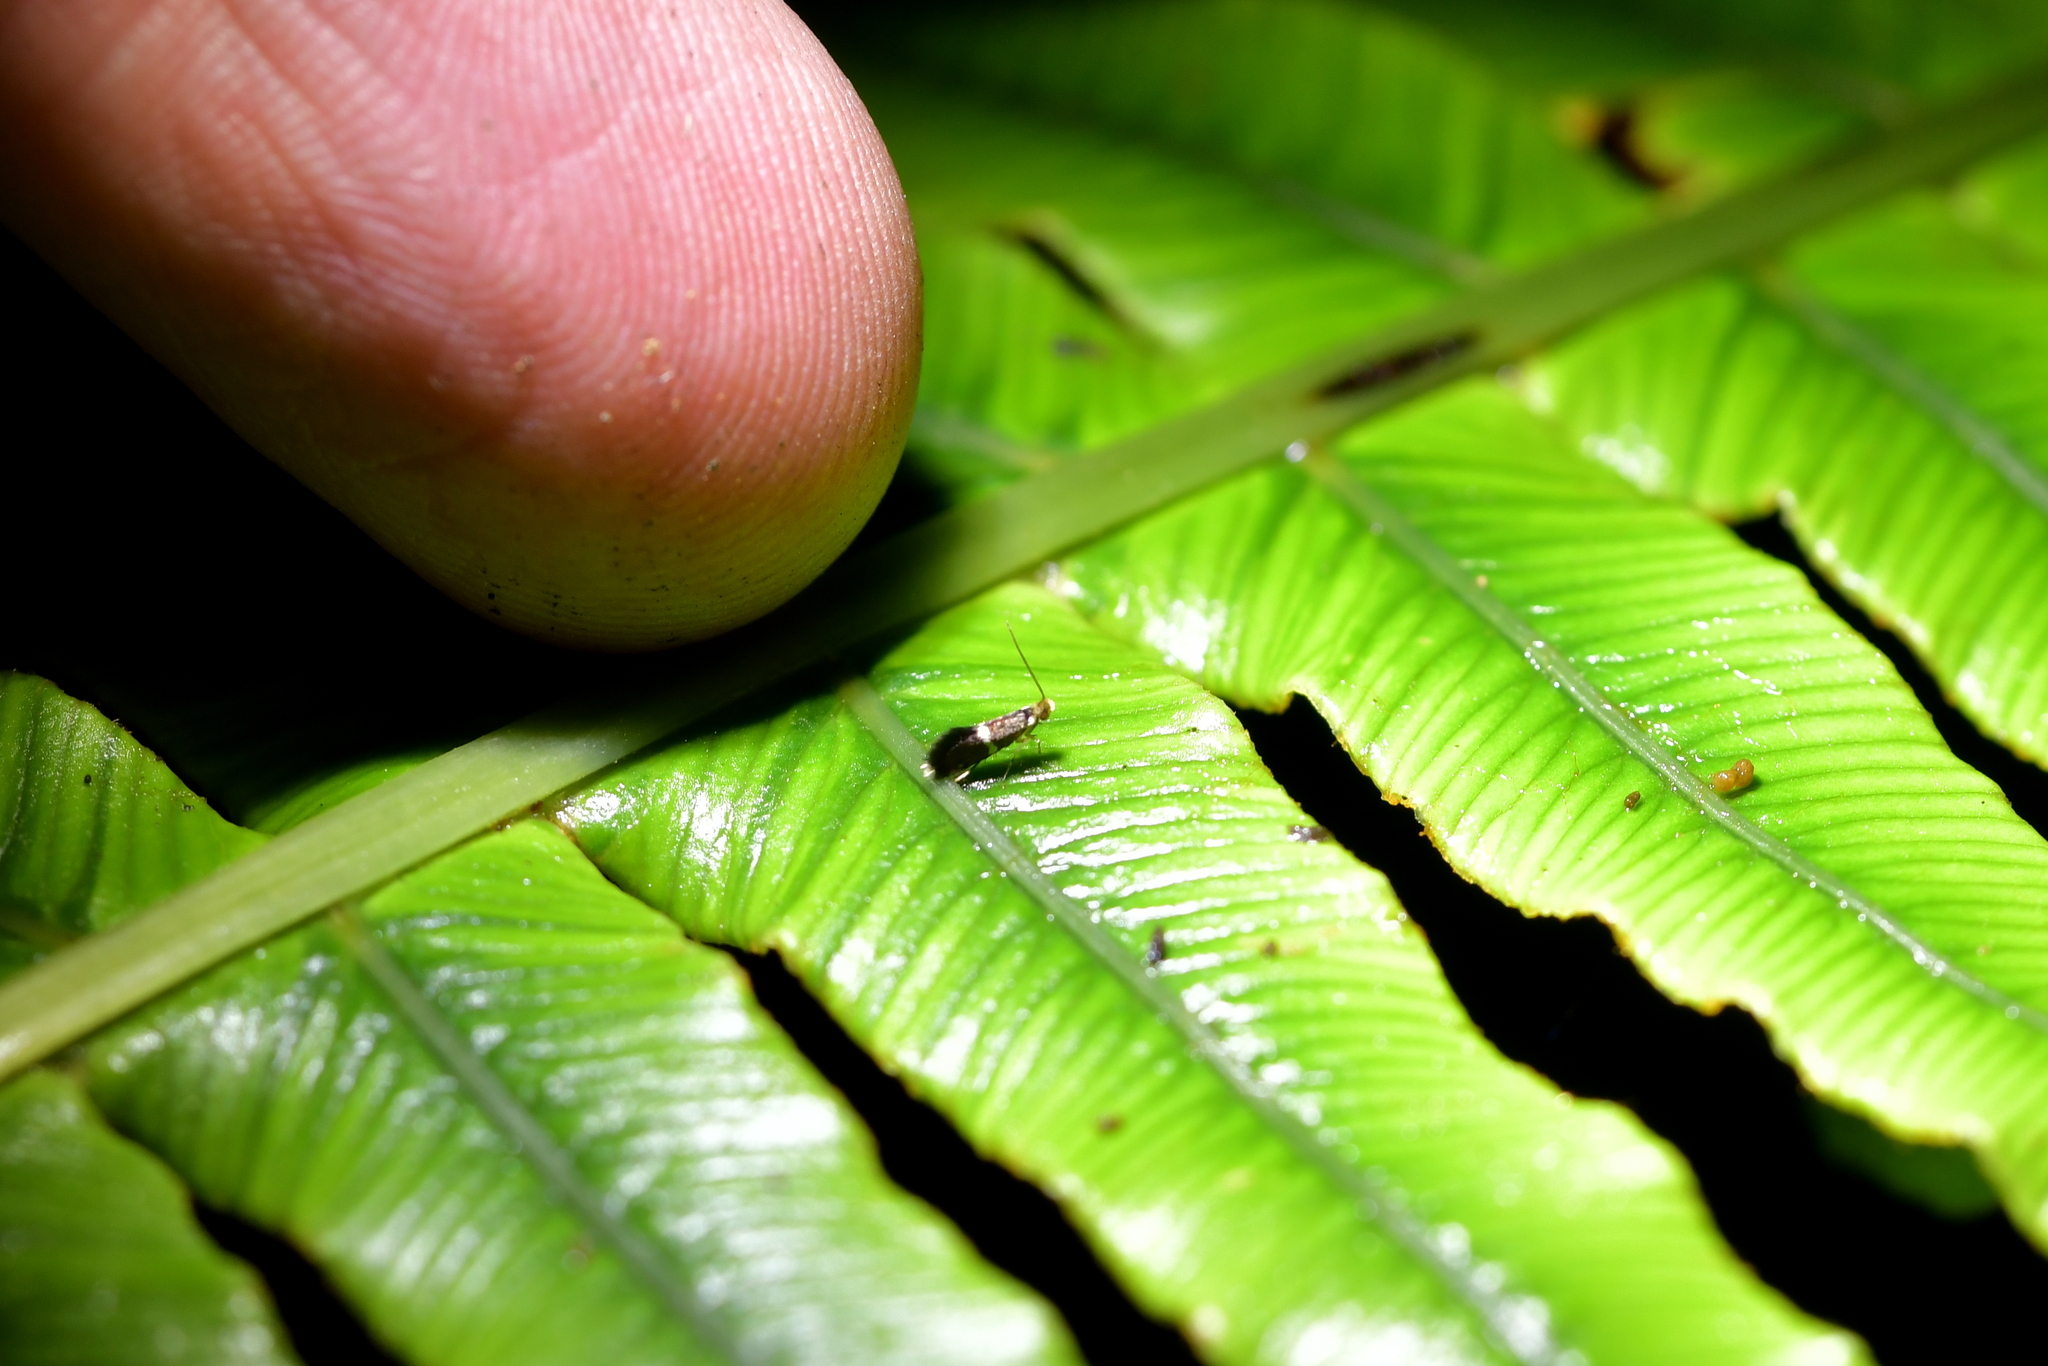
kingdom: Animalia
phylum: Arthropoda
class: Insecta
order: Lepidoptera
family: Micropterigidae
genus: Zealandopterix
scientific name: Zealandopterix zonodoxa
